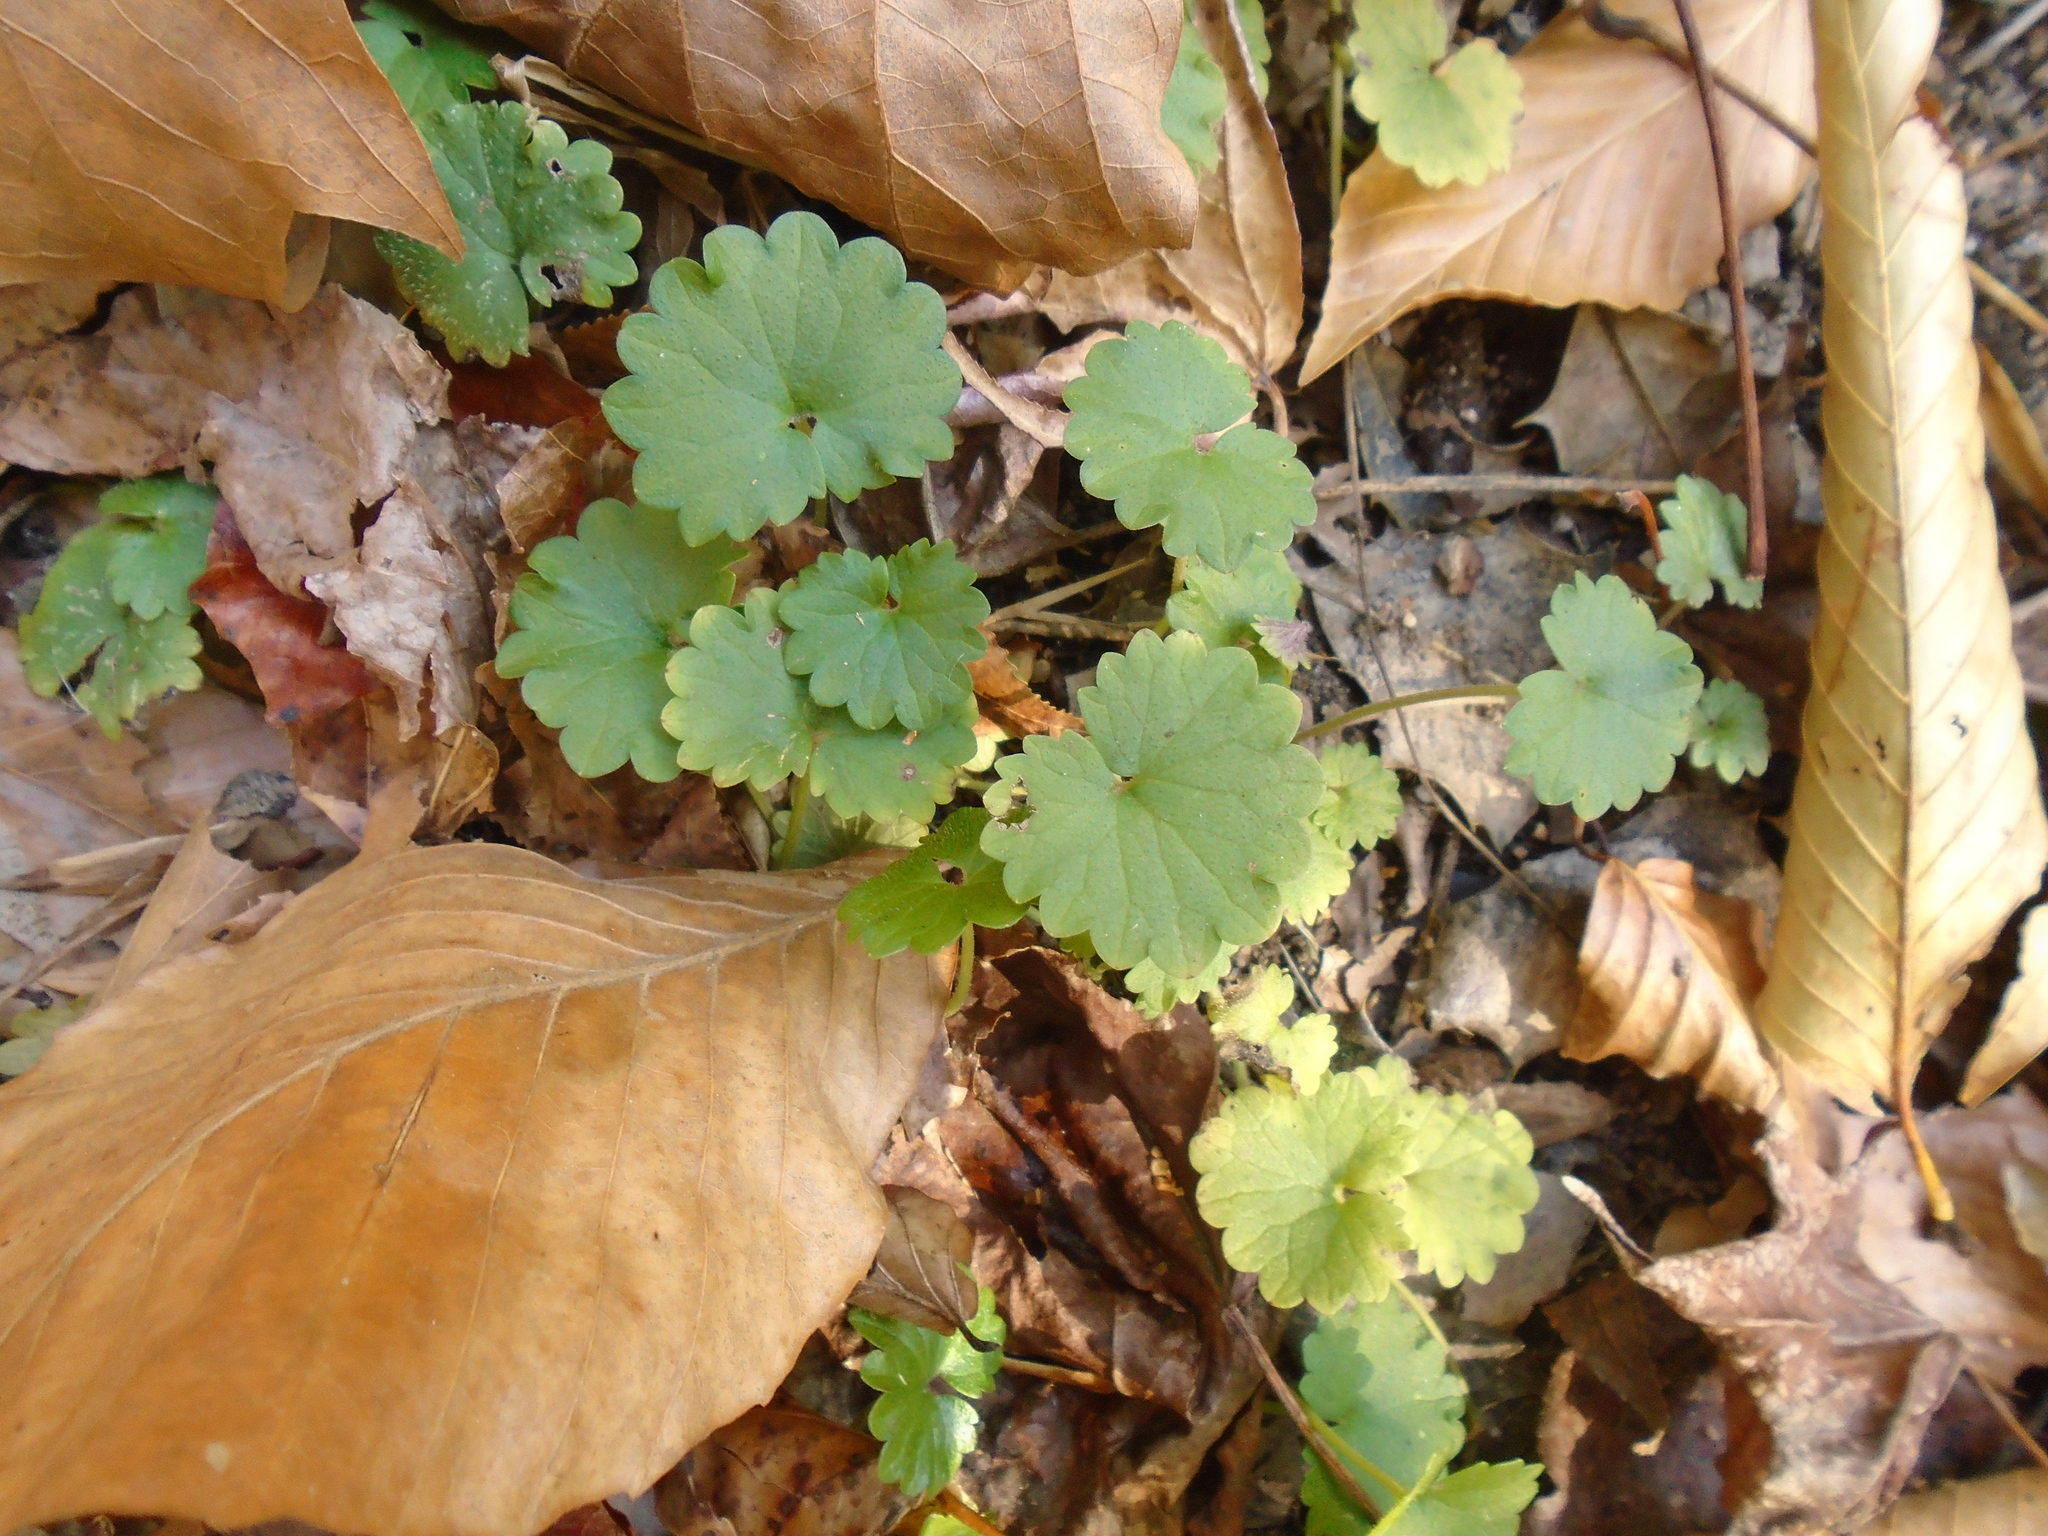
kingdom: Plantae
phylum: Tracheophyta
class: Magnoliopsida
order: Lamiales
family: Lamiaceae
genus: Glechoma
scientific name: Glechoma hederacea
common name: Ground ivy
